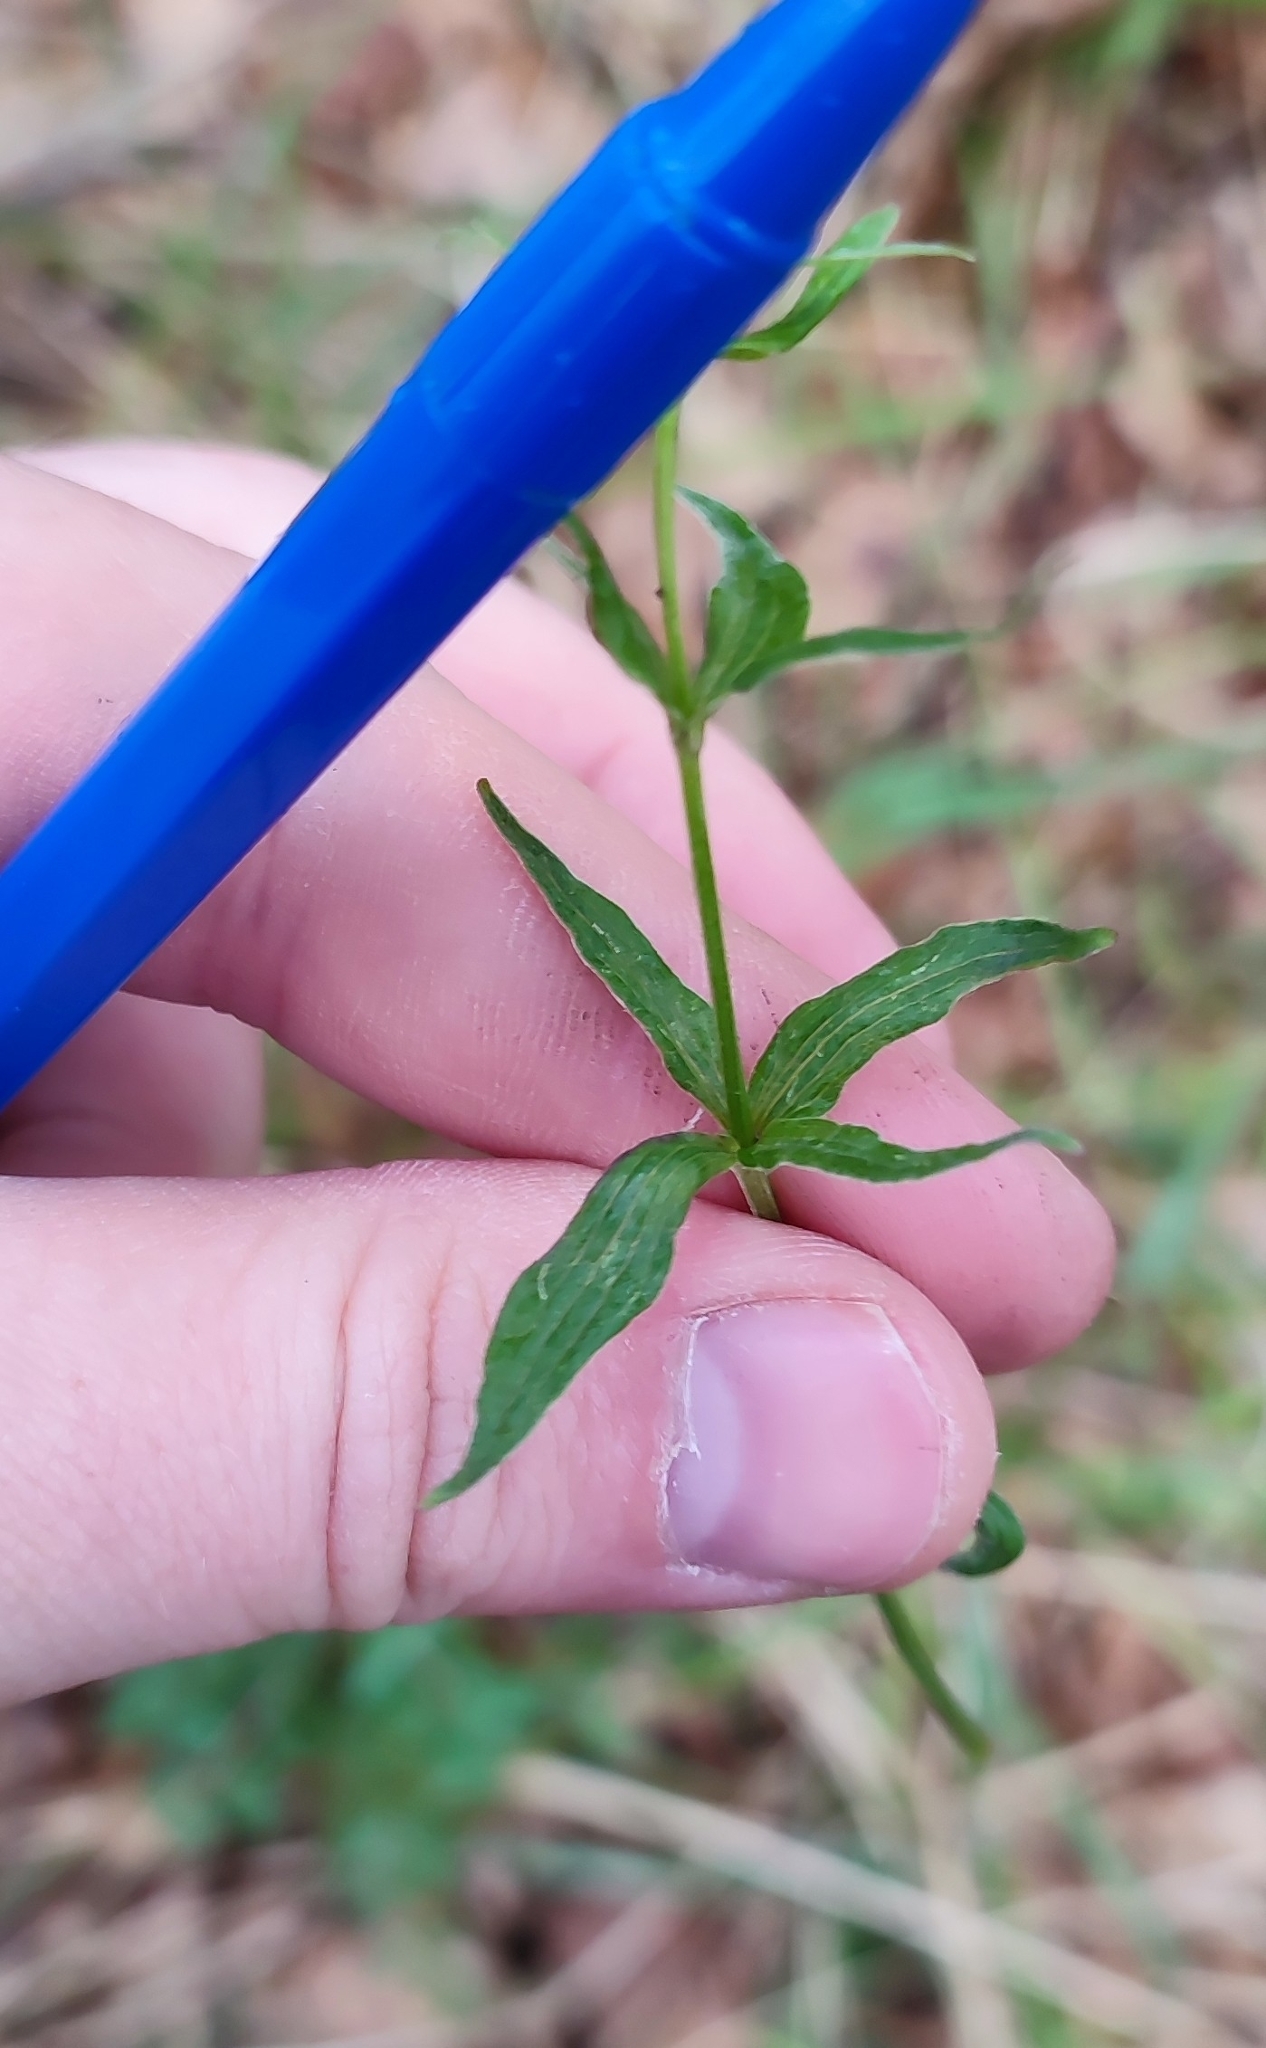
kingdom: Plantae
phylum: Tracheophyta
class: Magnoliopsida
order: Gentianales
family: Rubiaceae
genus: Galium
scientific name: Galium pseudoboreale
